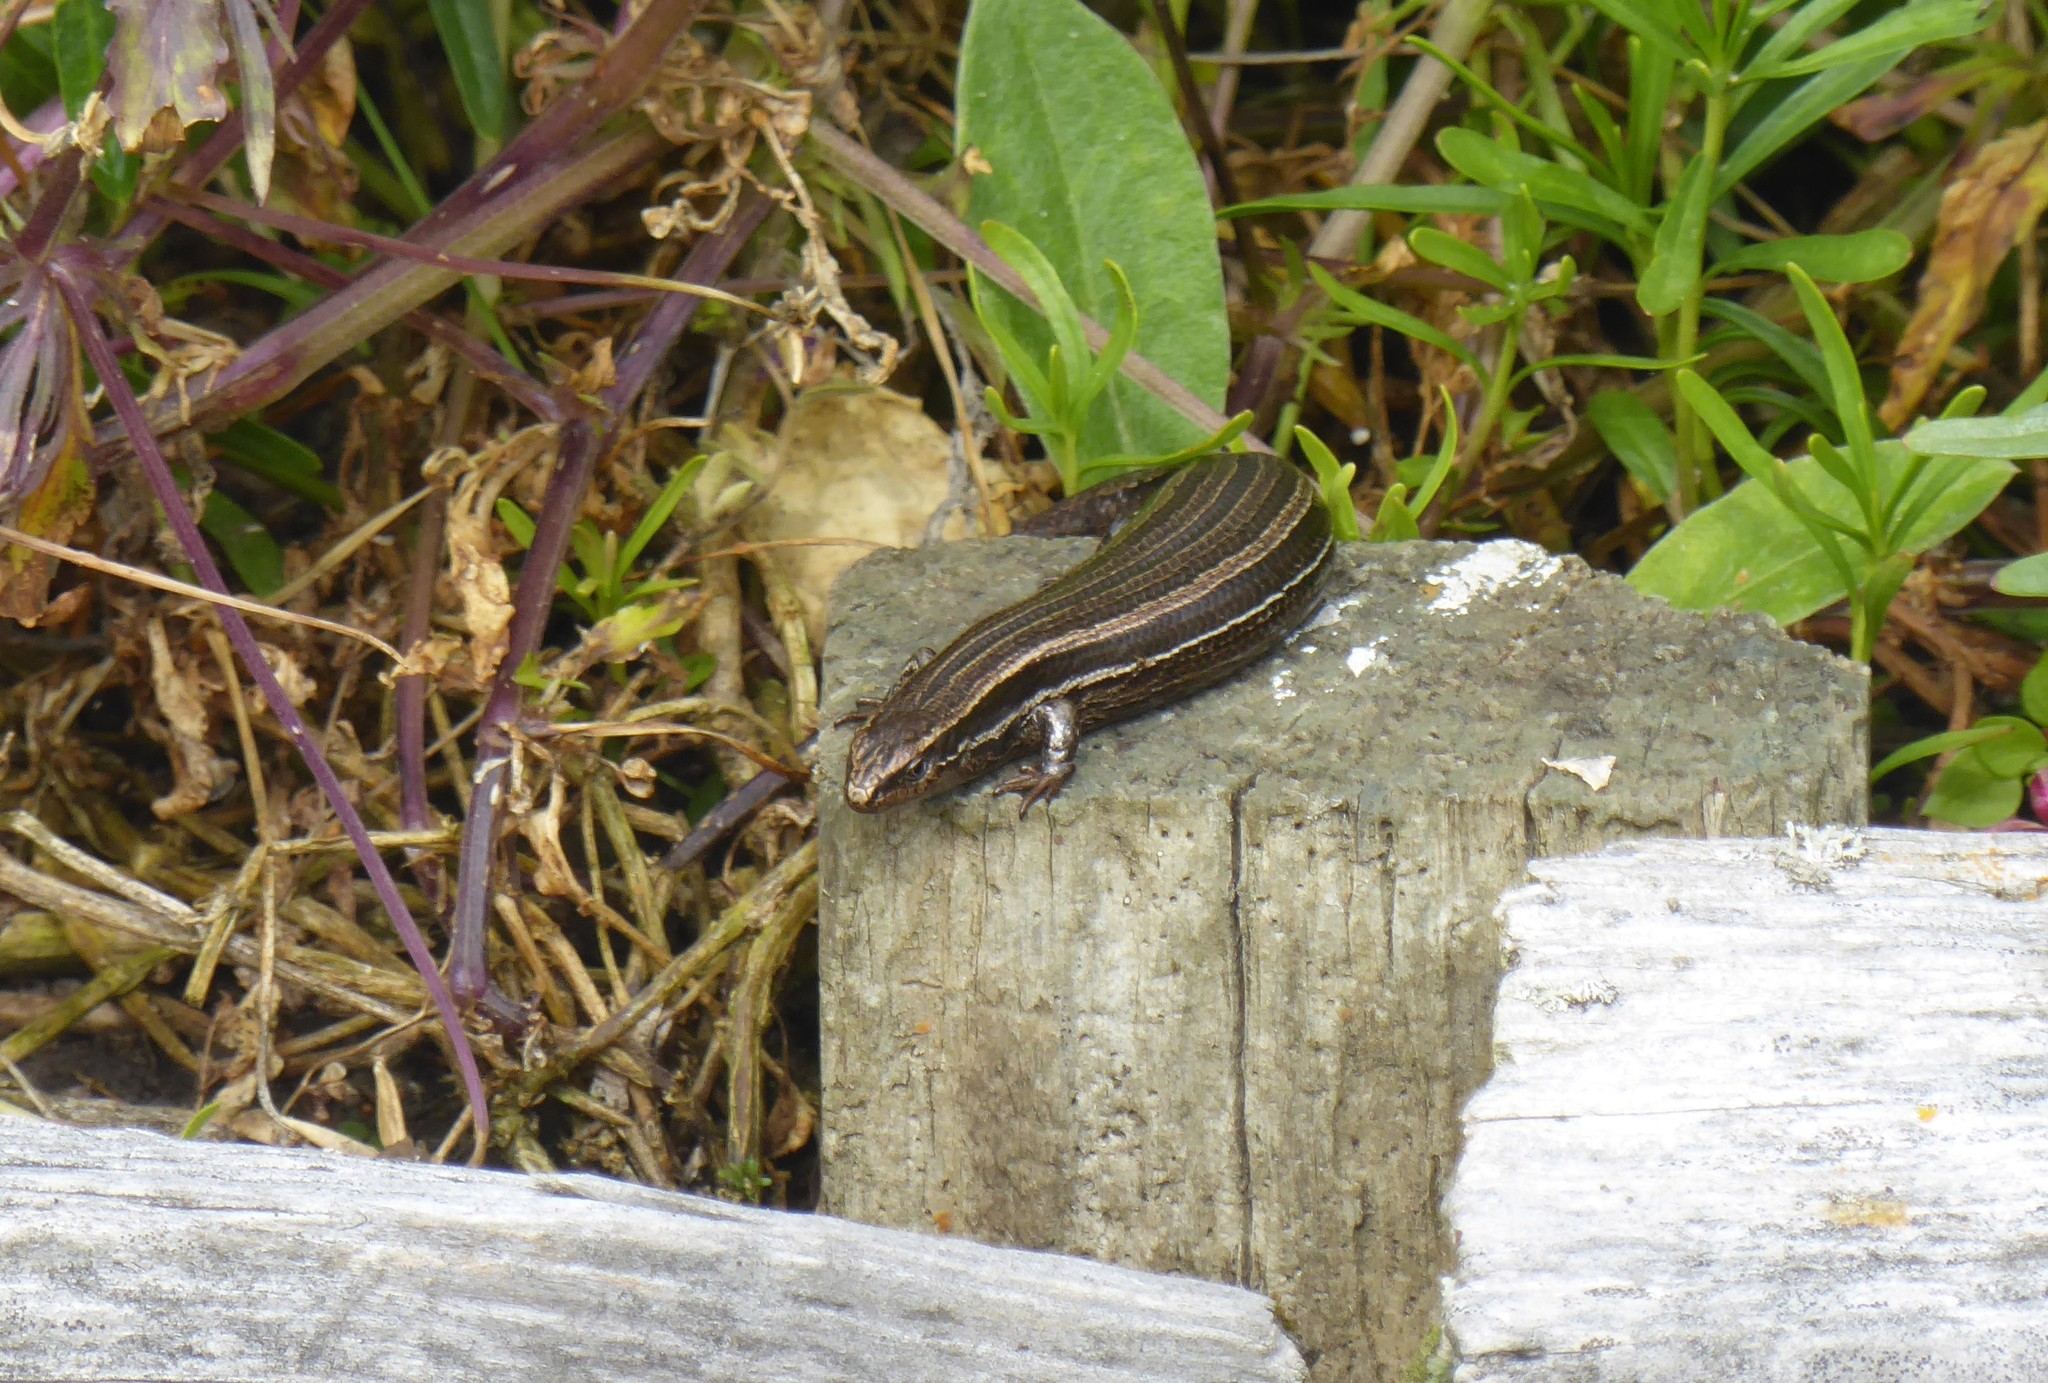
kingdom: Animalia
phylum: Chordata
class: Squamata
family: Scincidae
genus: Oligosoma
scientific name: Oligosoma polychroma
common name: Common new zealand skink
